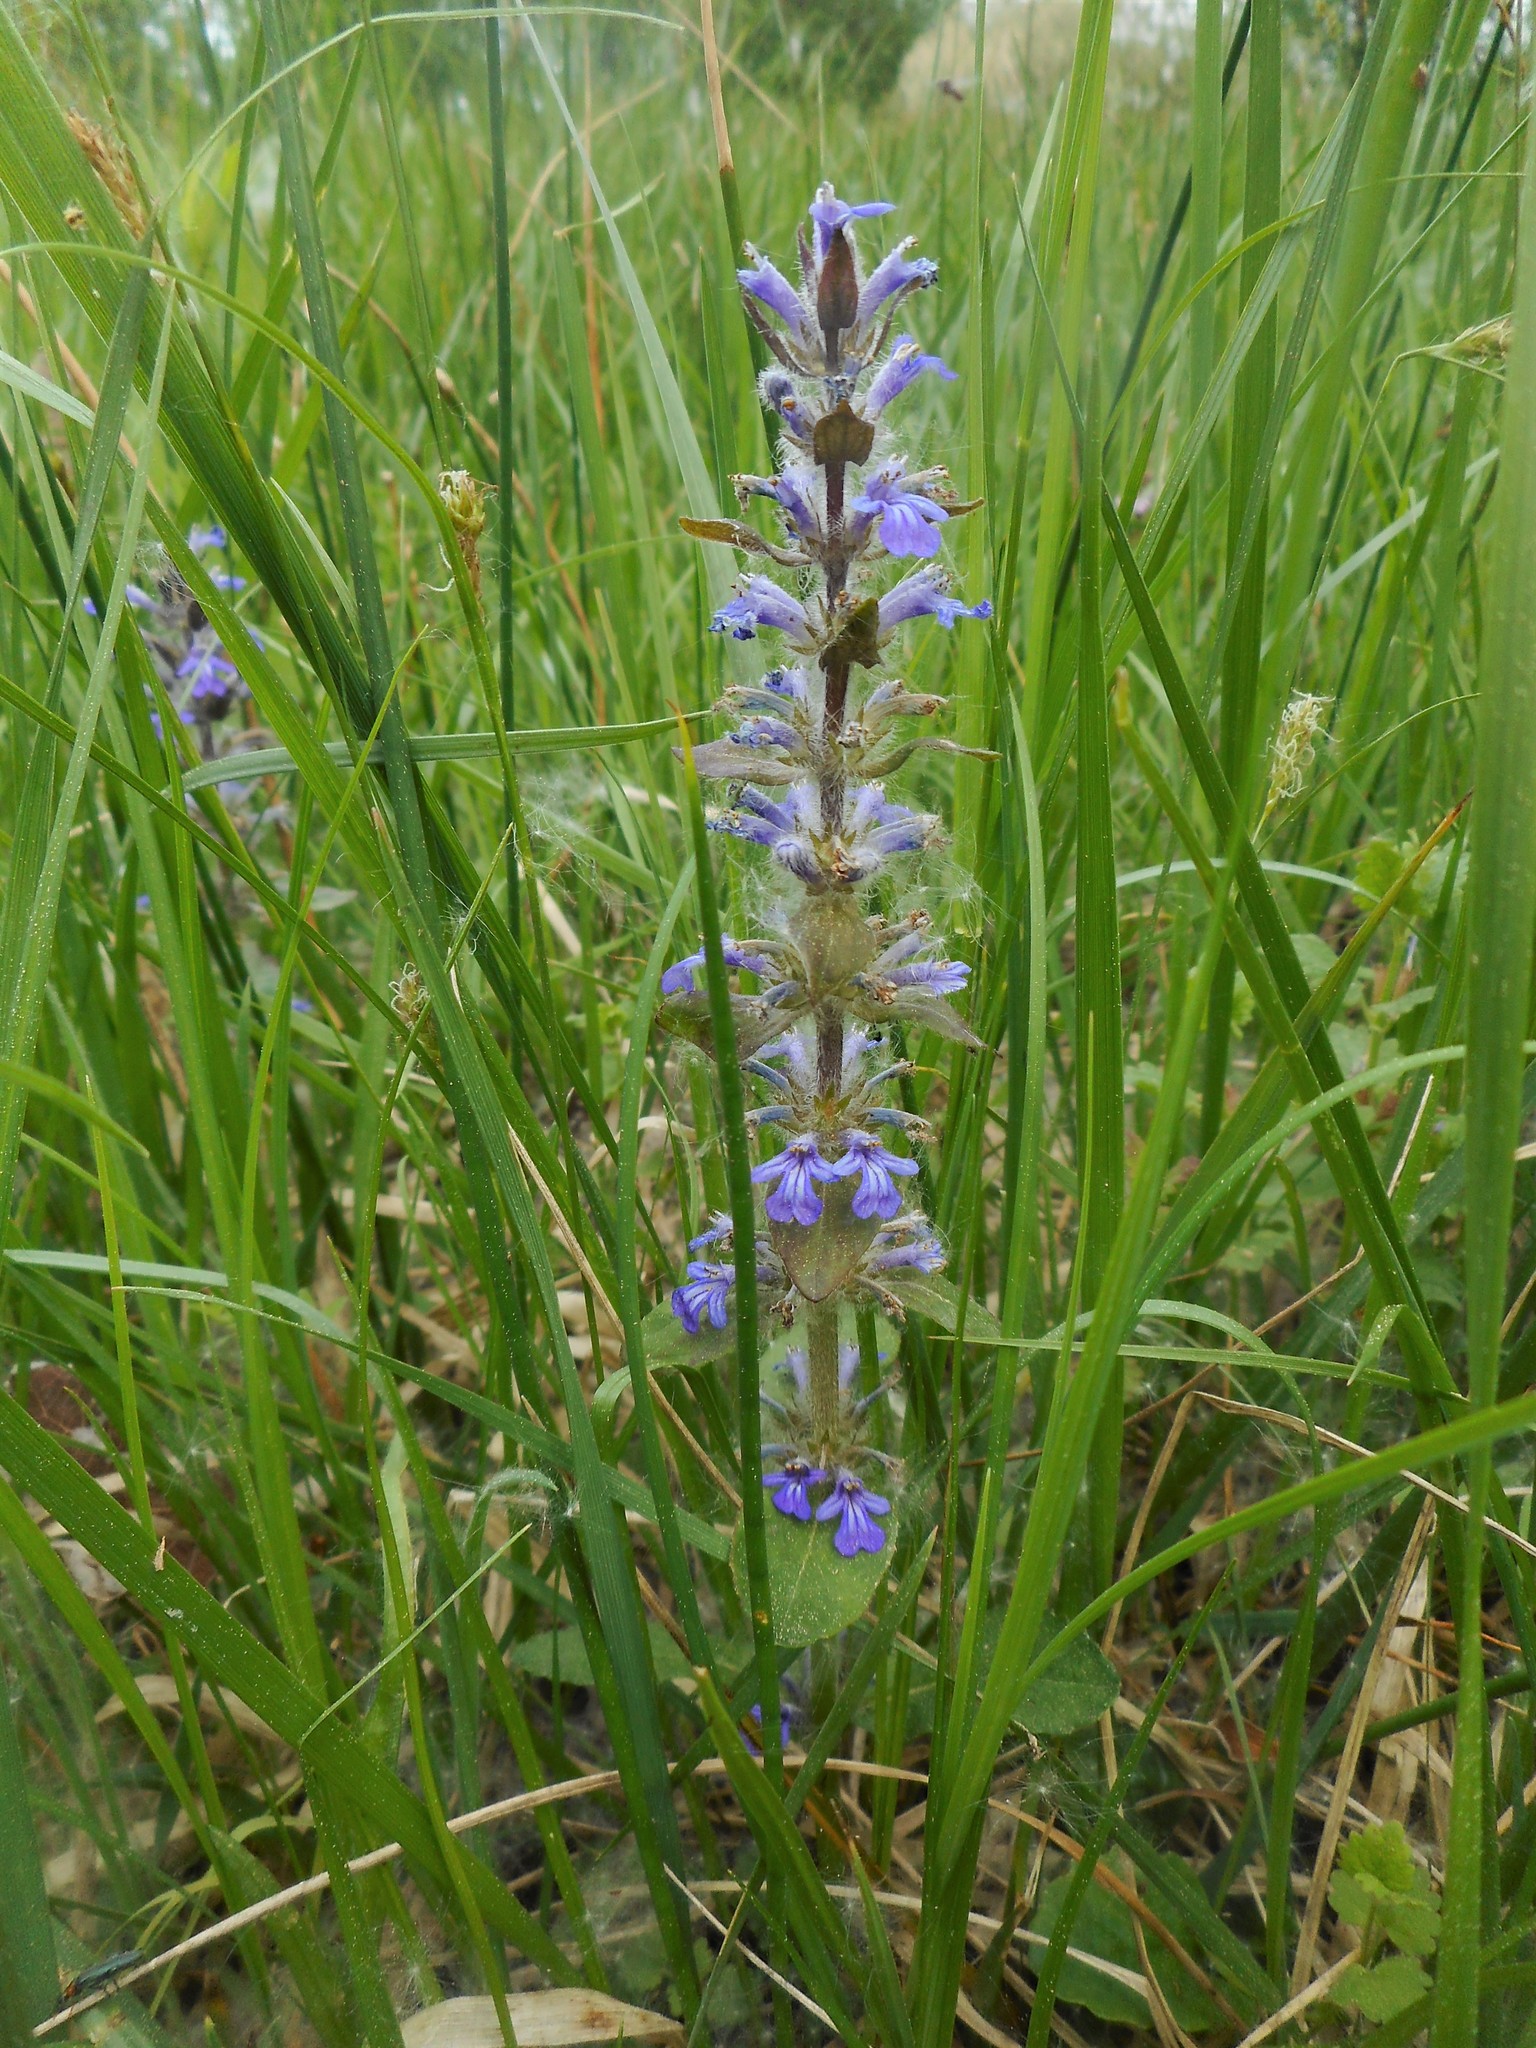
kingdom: Plantae
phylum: Tracheophyta
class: Magnoliopsida
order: Lamiales
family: Lamiaceae
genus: Ajuga
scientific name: Ajuga reptans
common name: Bugle
